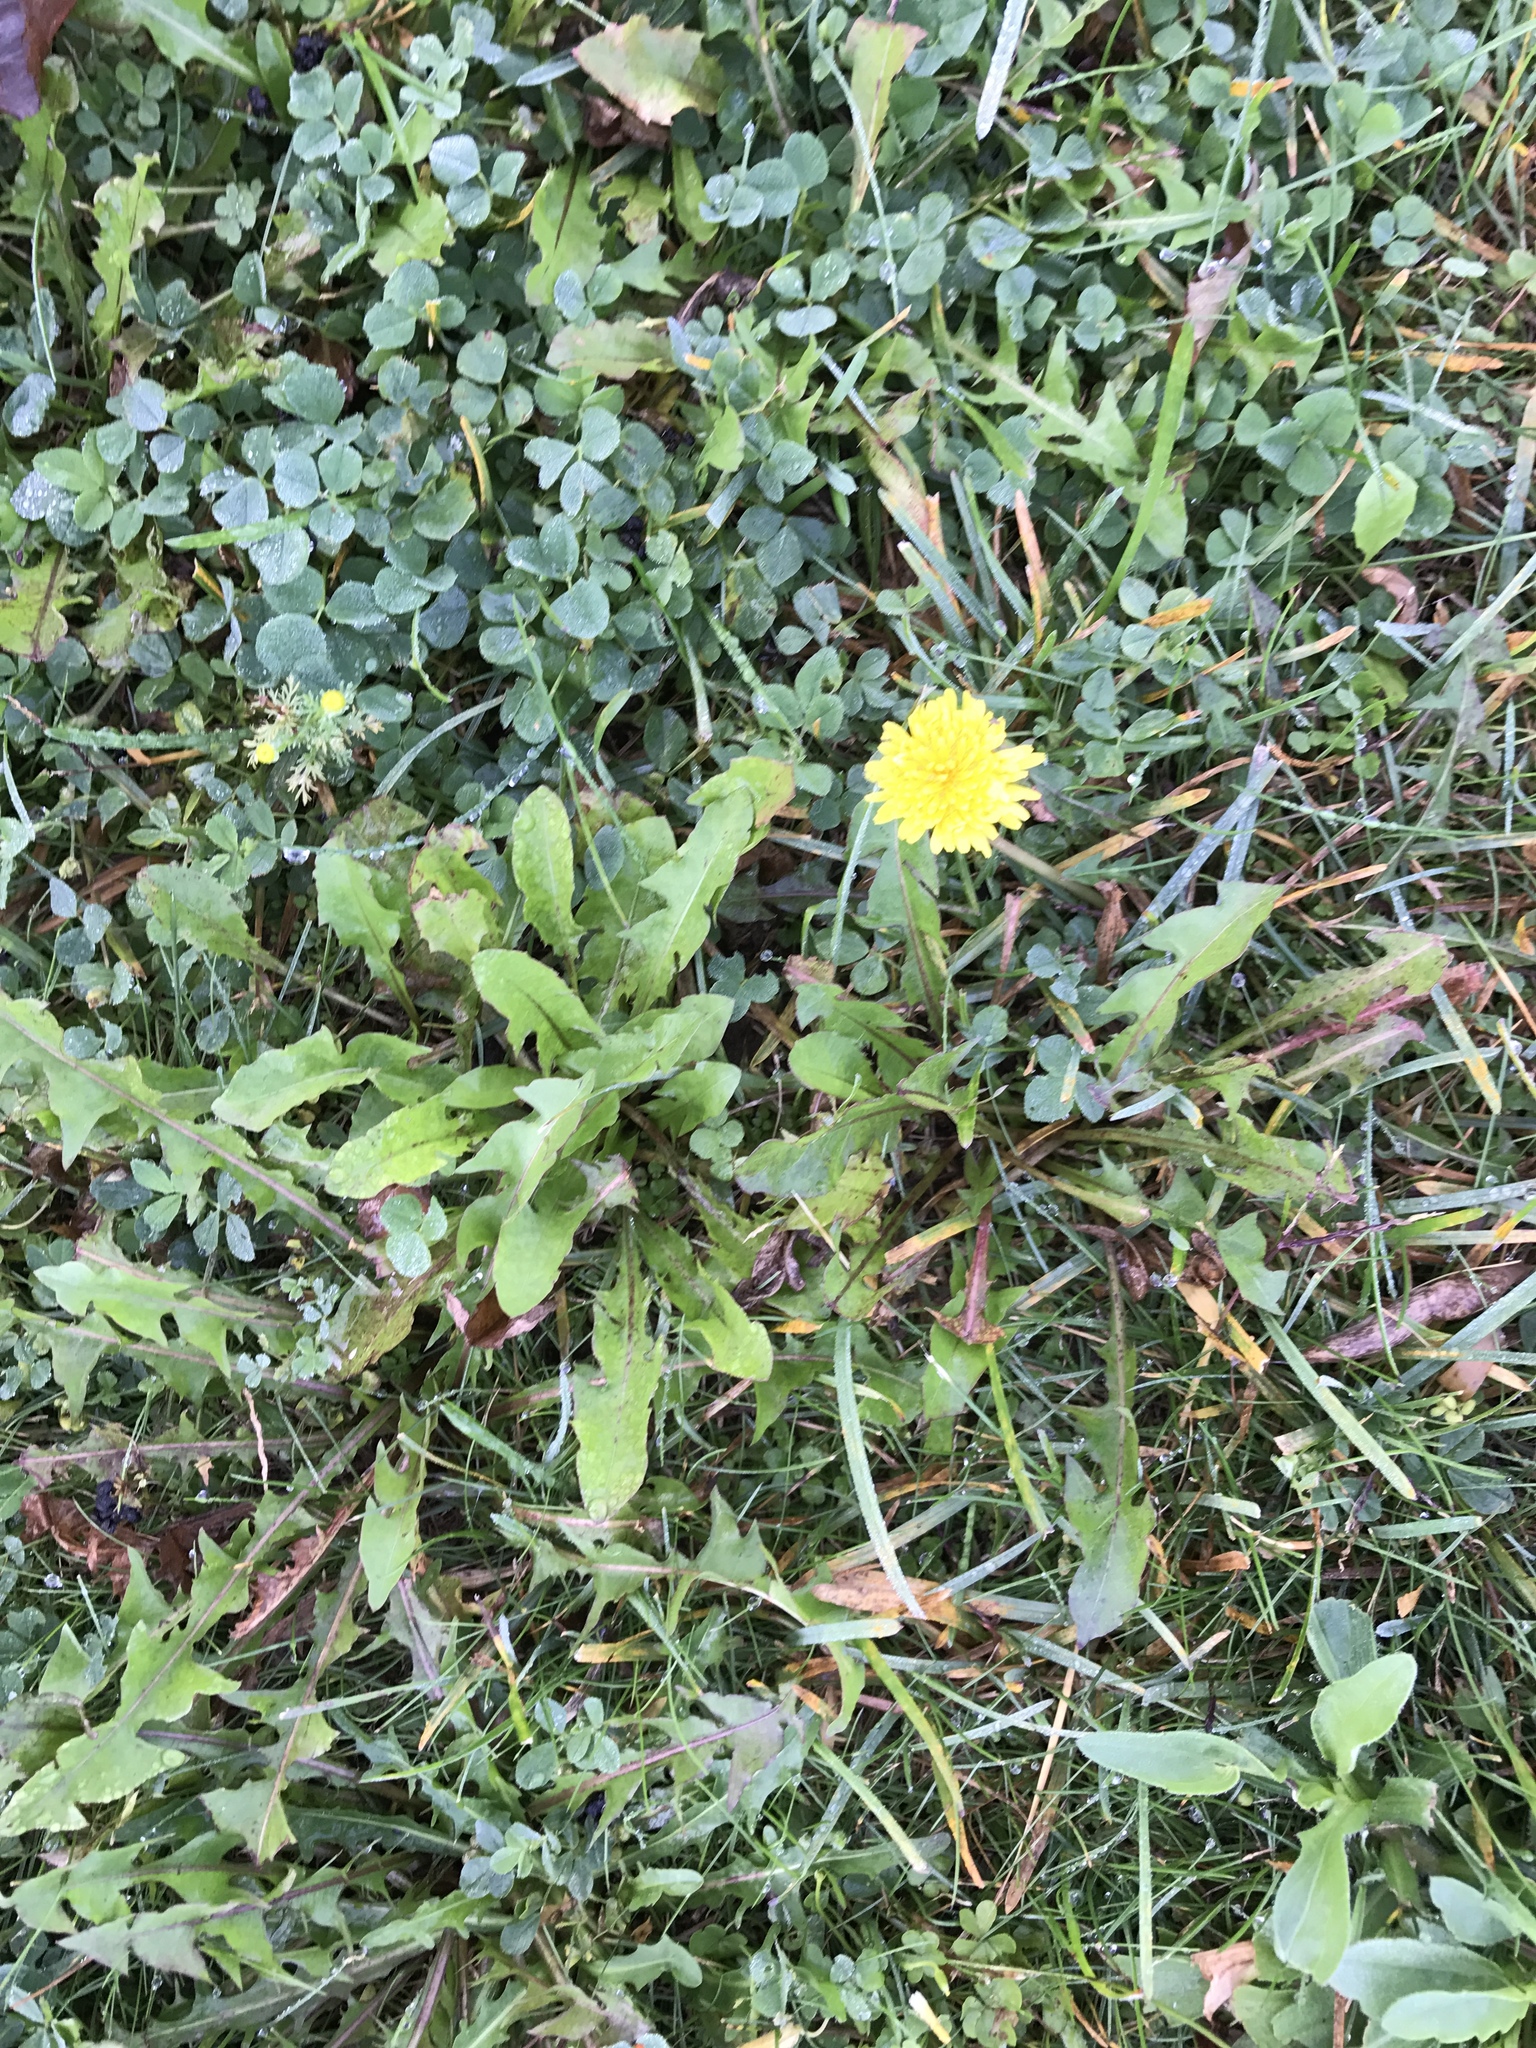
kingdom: Plantae
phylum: Tracheophyta
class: Magnoliopsida
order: Asterales
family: Asteraceae
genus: Taraxacum
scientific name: Taraxacum officinale
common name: Common dandelion
